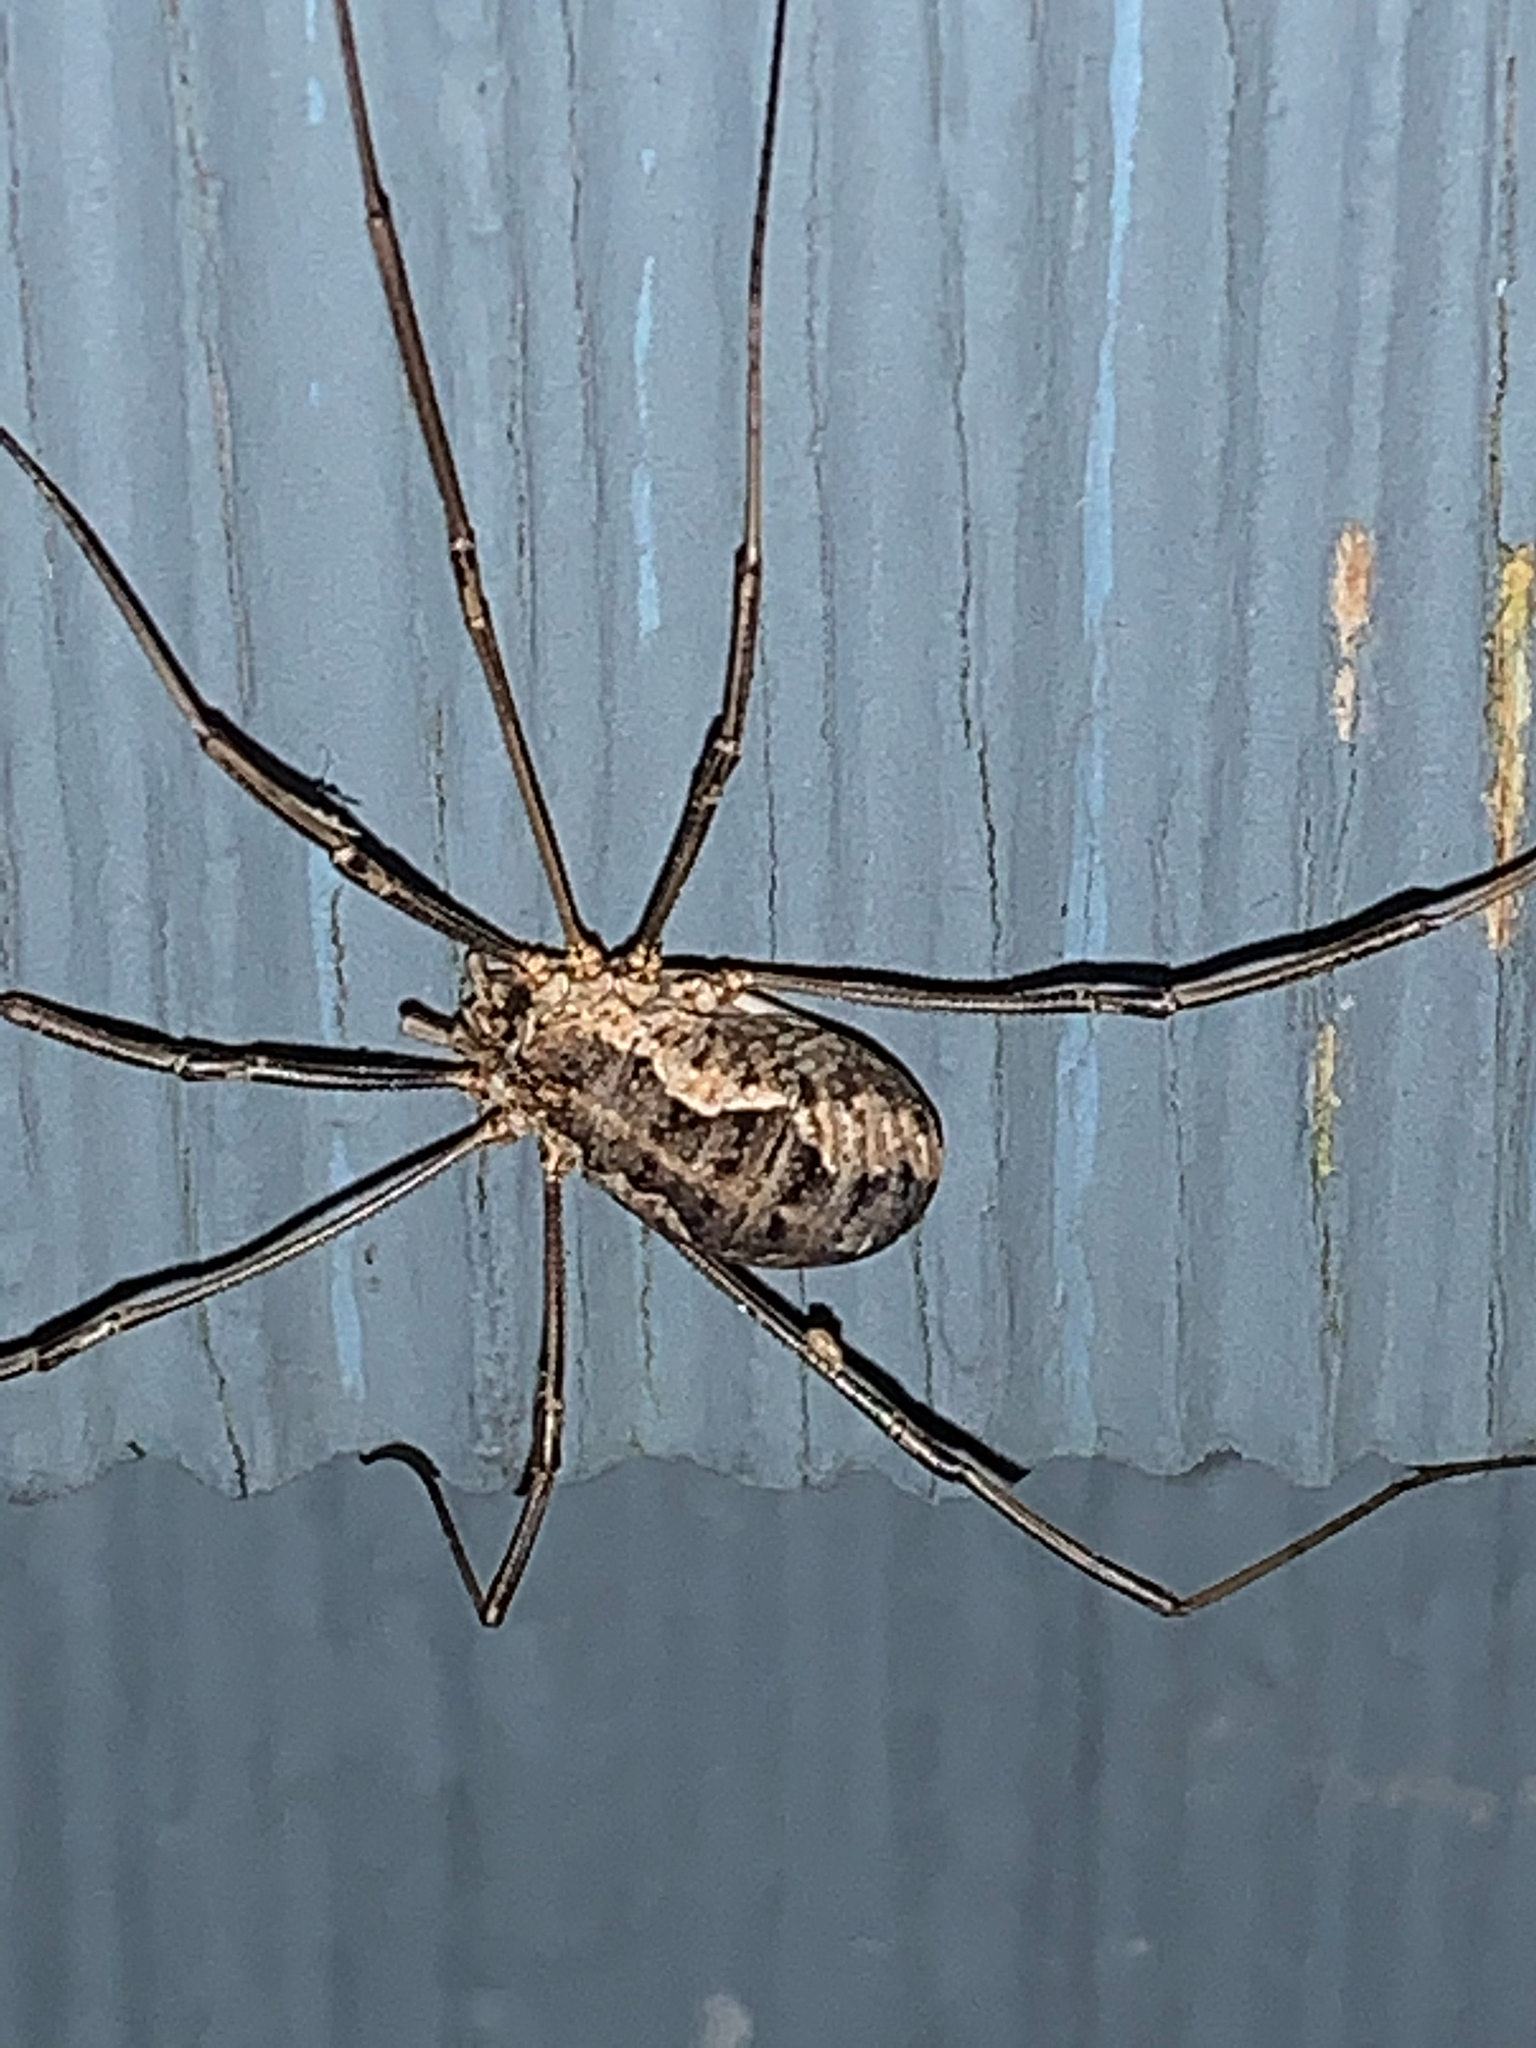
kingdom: Animalia
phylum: Arthropoda
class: Arachnida
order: Opiliones
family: Phalangiidae
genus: Phalangium
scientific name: Phalangium opilio
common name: Daddy longleg
